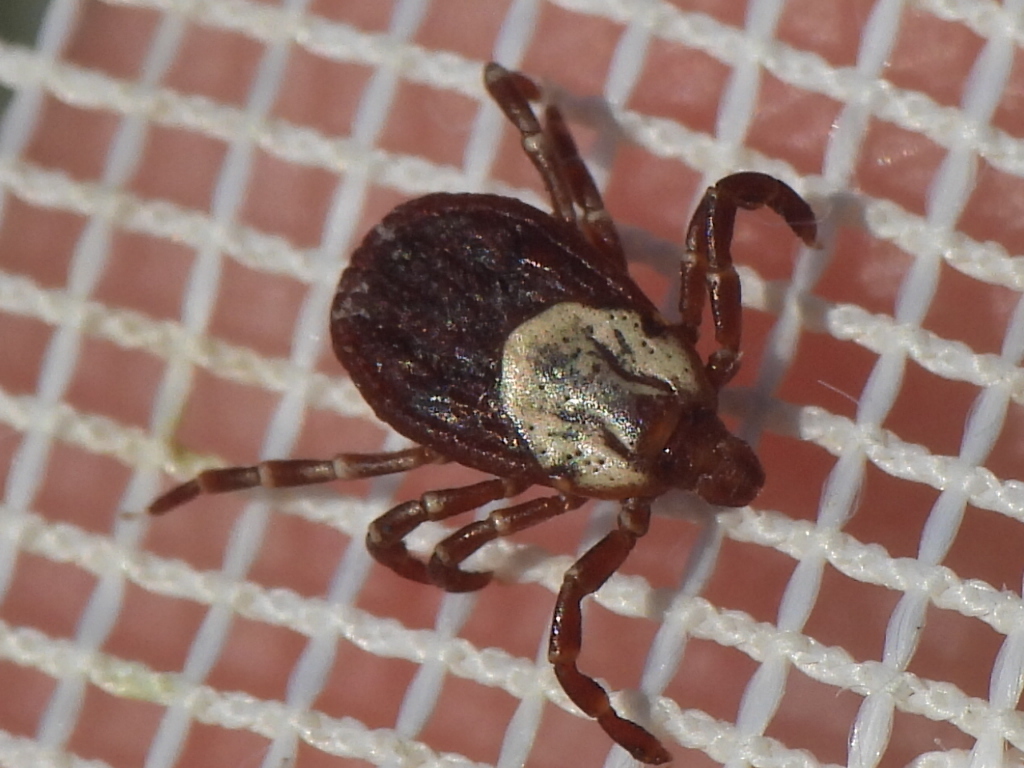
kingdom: Animalia
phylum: Arthropoda
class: Arachnida
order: Ixodida
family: Ixodidae
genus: Dermacentor
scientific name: Dermacentor variabilis
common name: American dog tick
